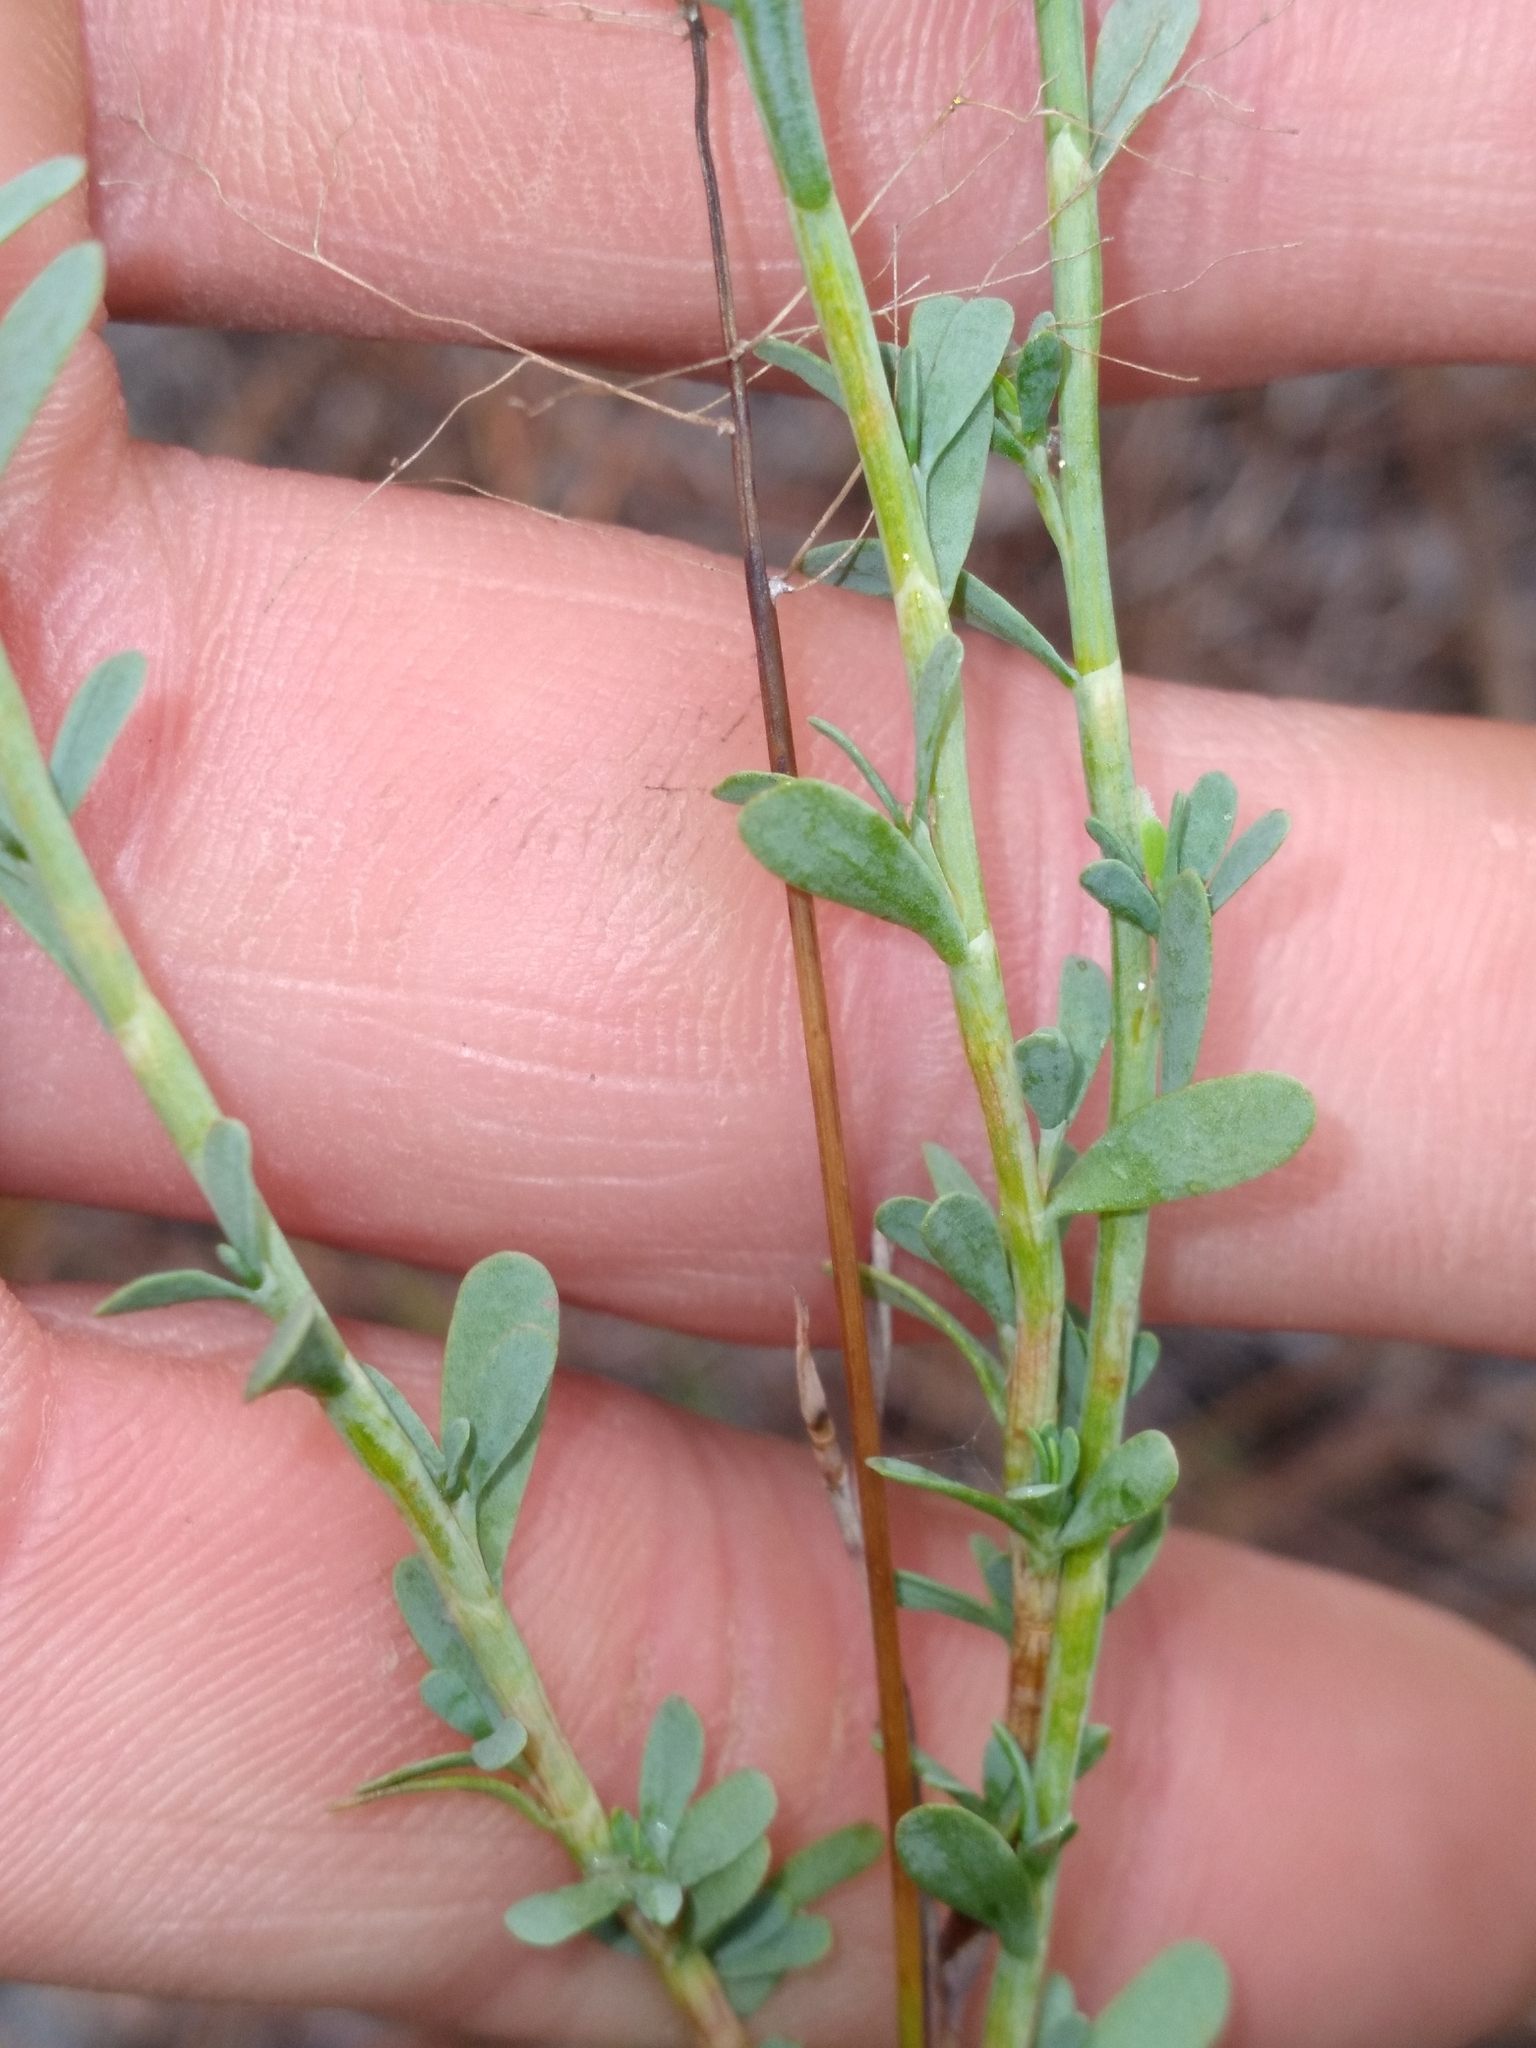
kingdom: Plantae
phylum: Tracheophyta
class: Magnoliopsida
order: Caryophyllales
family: Polygonaceae
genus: Polygonella
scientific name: Polygonella polygama
